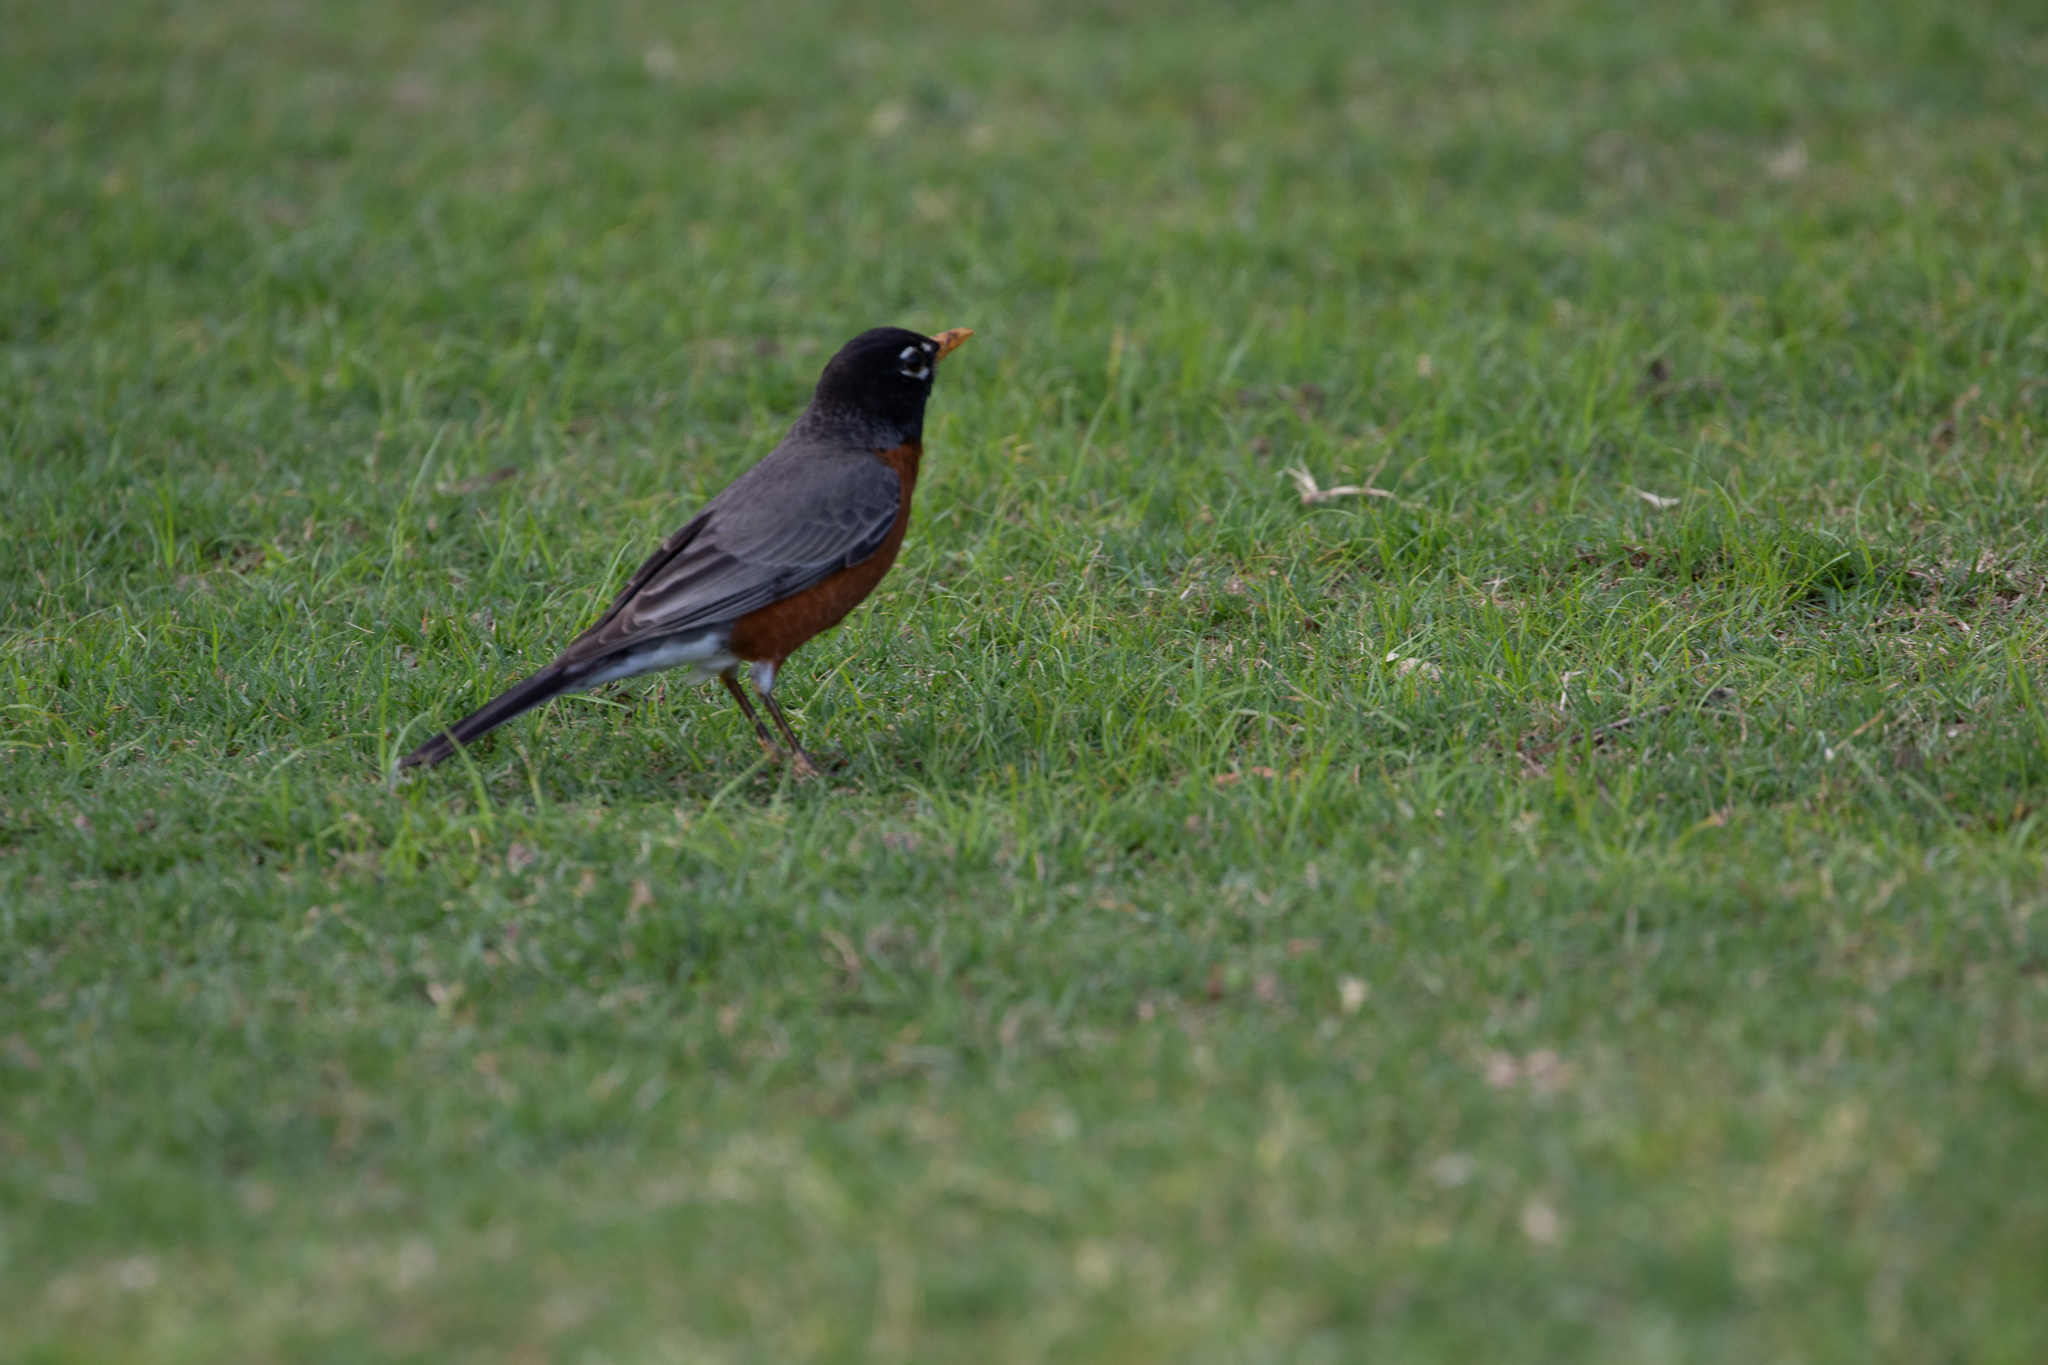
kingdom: Animalia
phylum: Chordata
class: Aves
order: Passeriformes
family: Turdidae
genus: Turdus
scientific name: Turdus migratorius
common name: American robin
